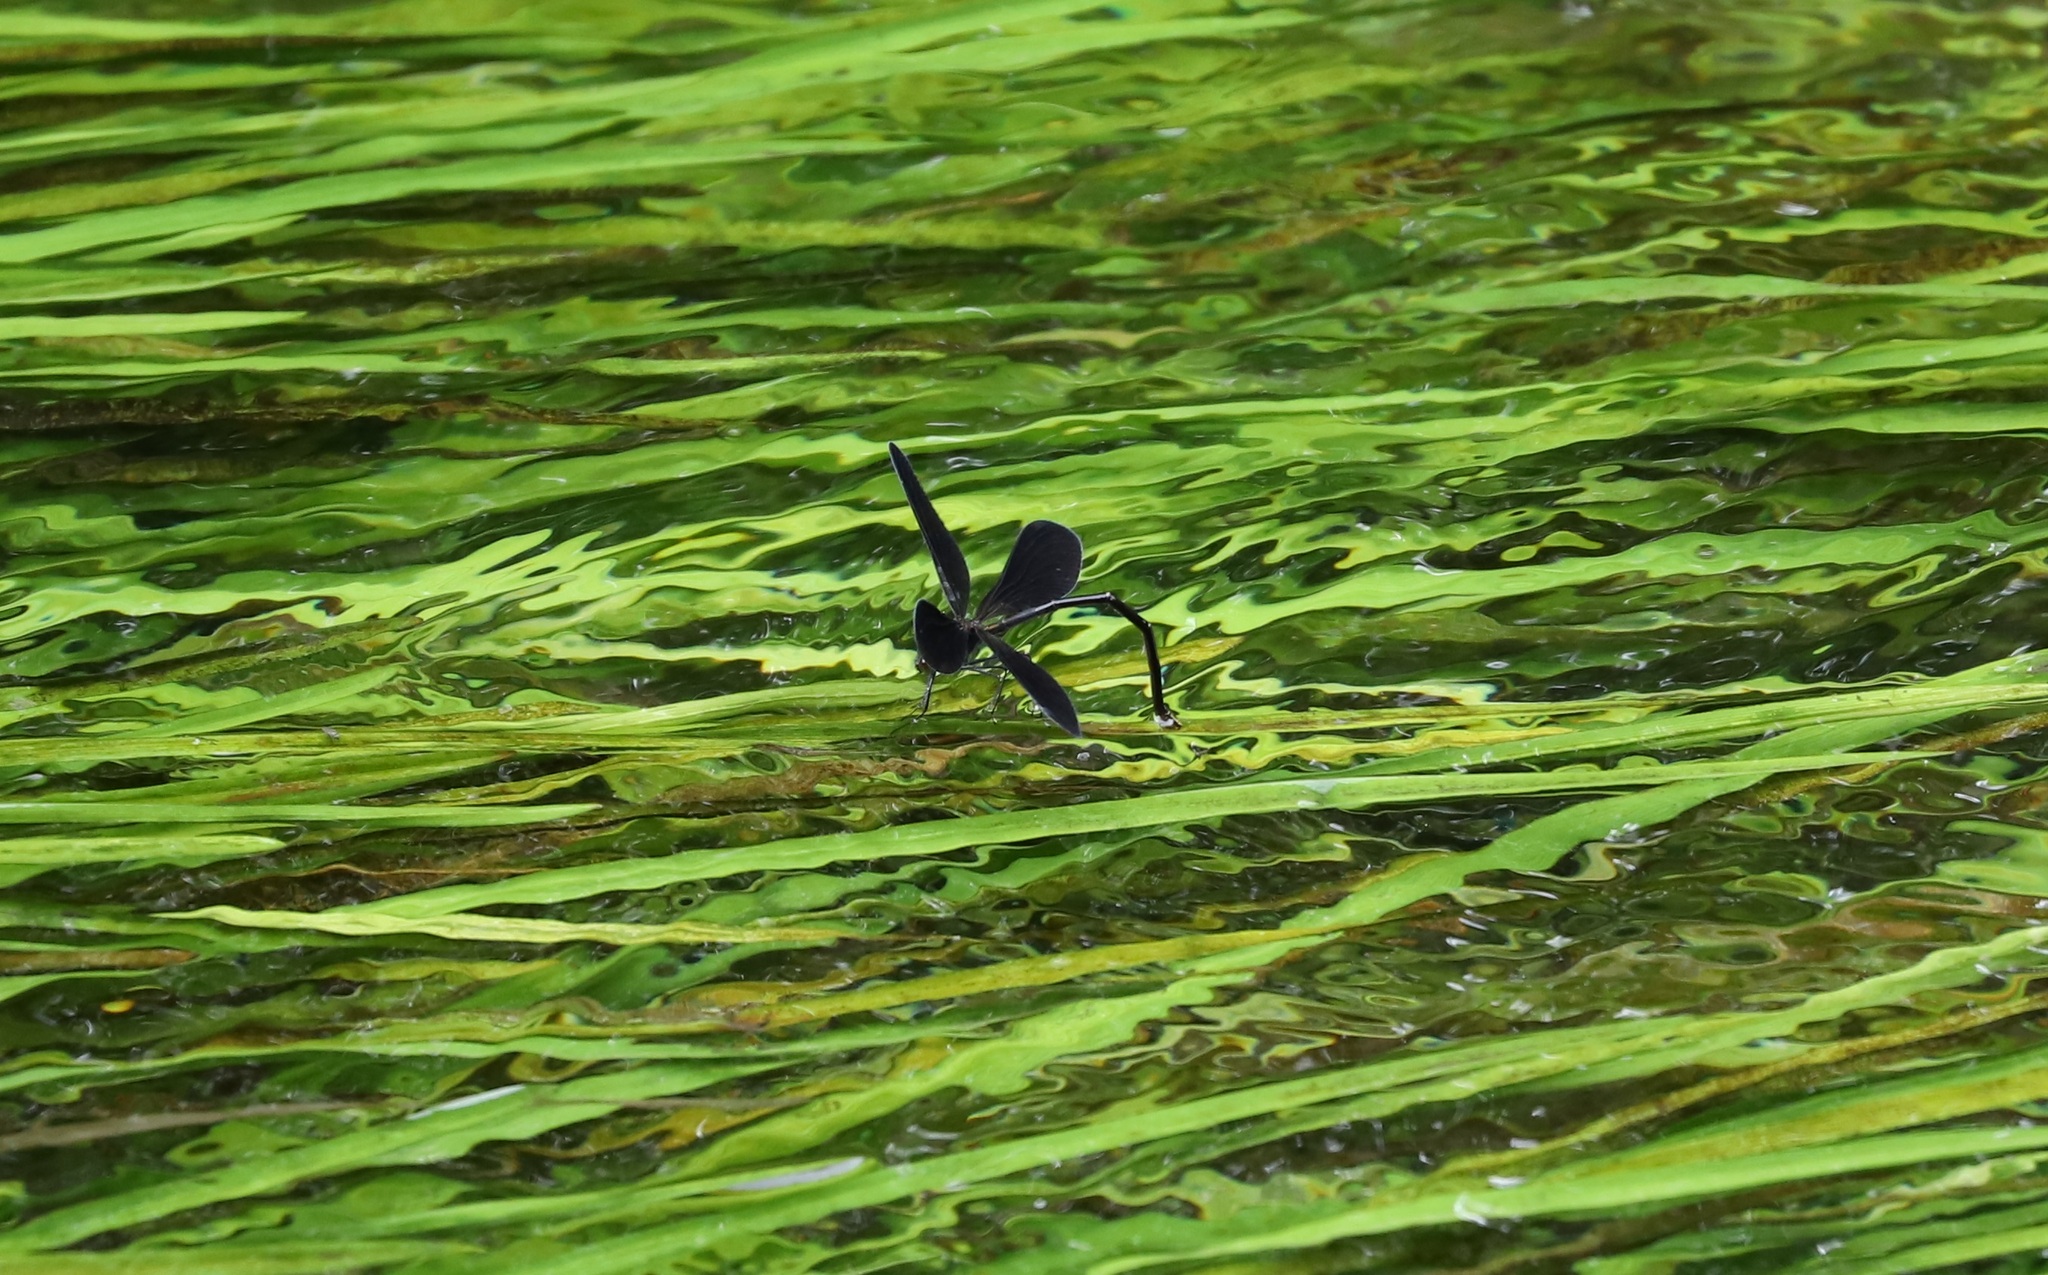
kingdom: Animalia
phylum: Arthropoda
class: Insecta
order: Odonata
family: Calopterygidae
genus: Atrocalopteryx
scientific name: Atrocalopteryx atrata
